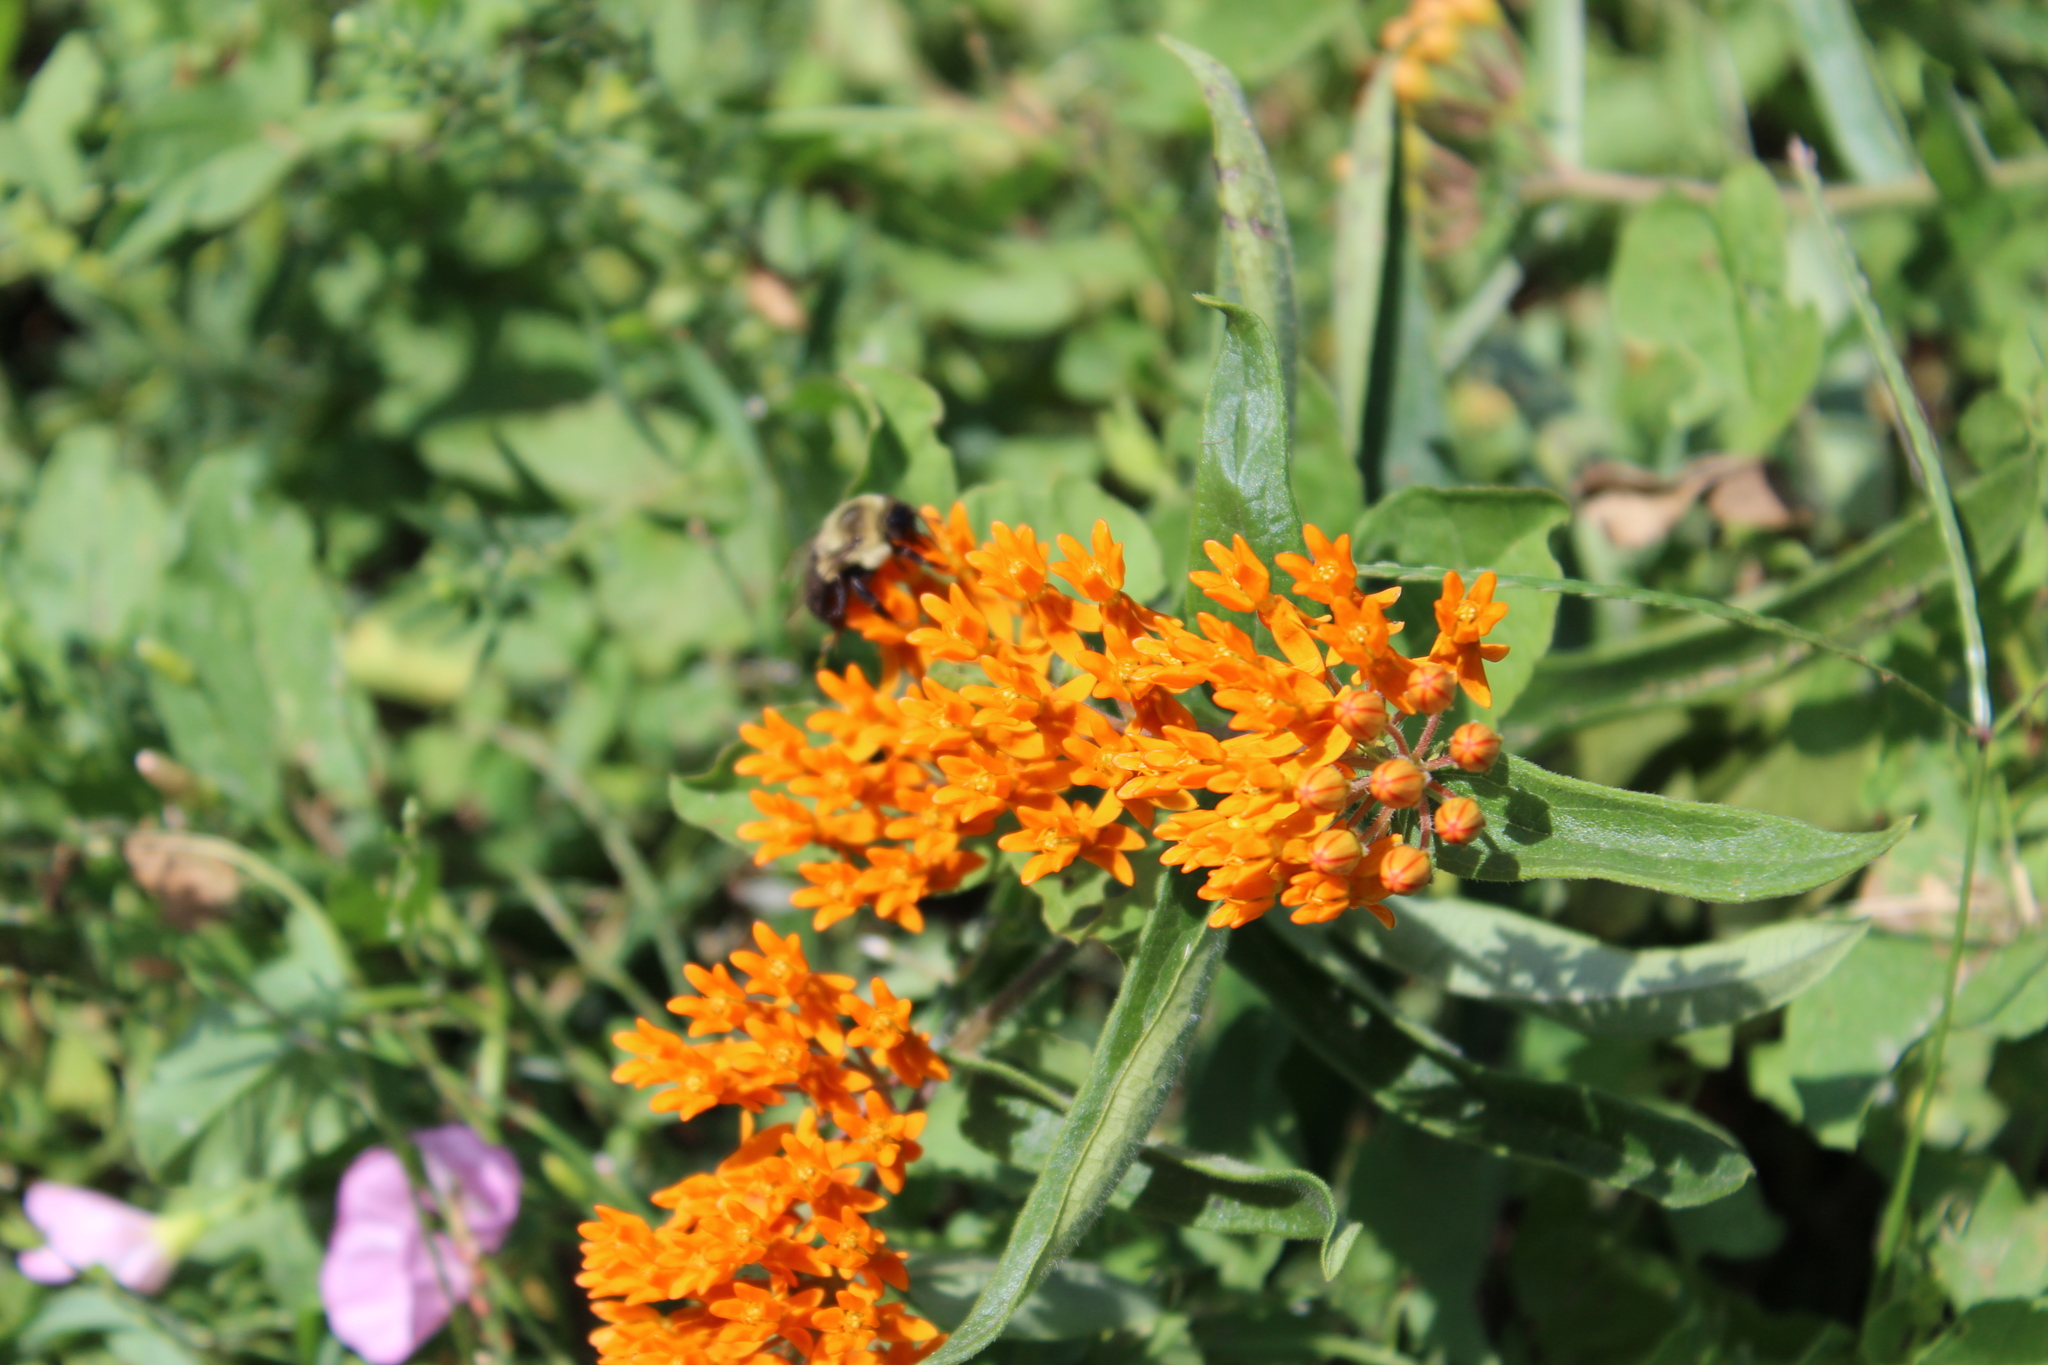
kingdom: Plantae
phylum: Tracheophyta
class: Magnoliopsida
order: Gentianales
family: Apocynaceae
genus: Asclepias
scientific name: Asclepias tuberosa
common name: Butterfly milkweed
